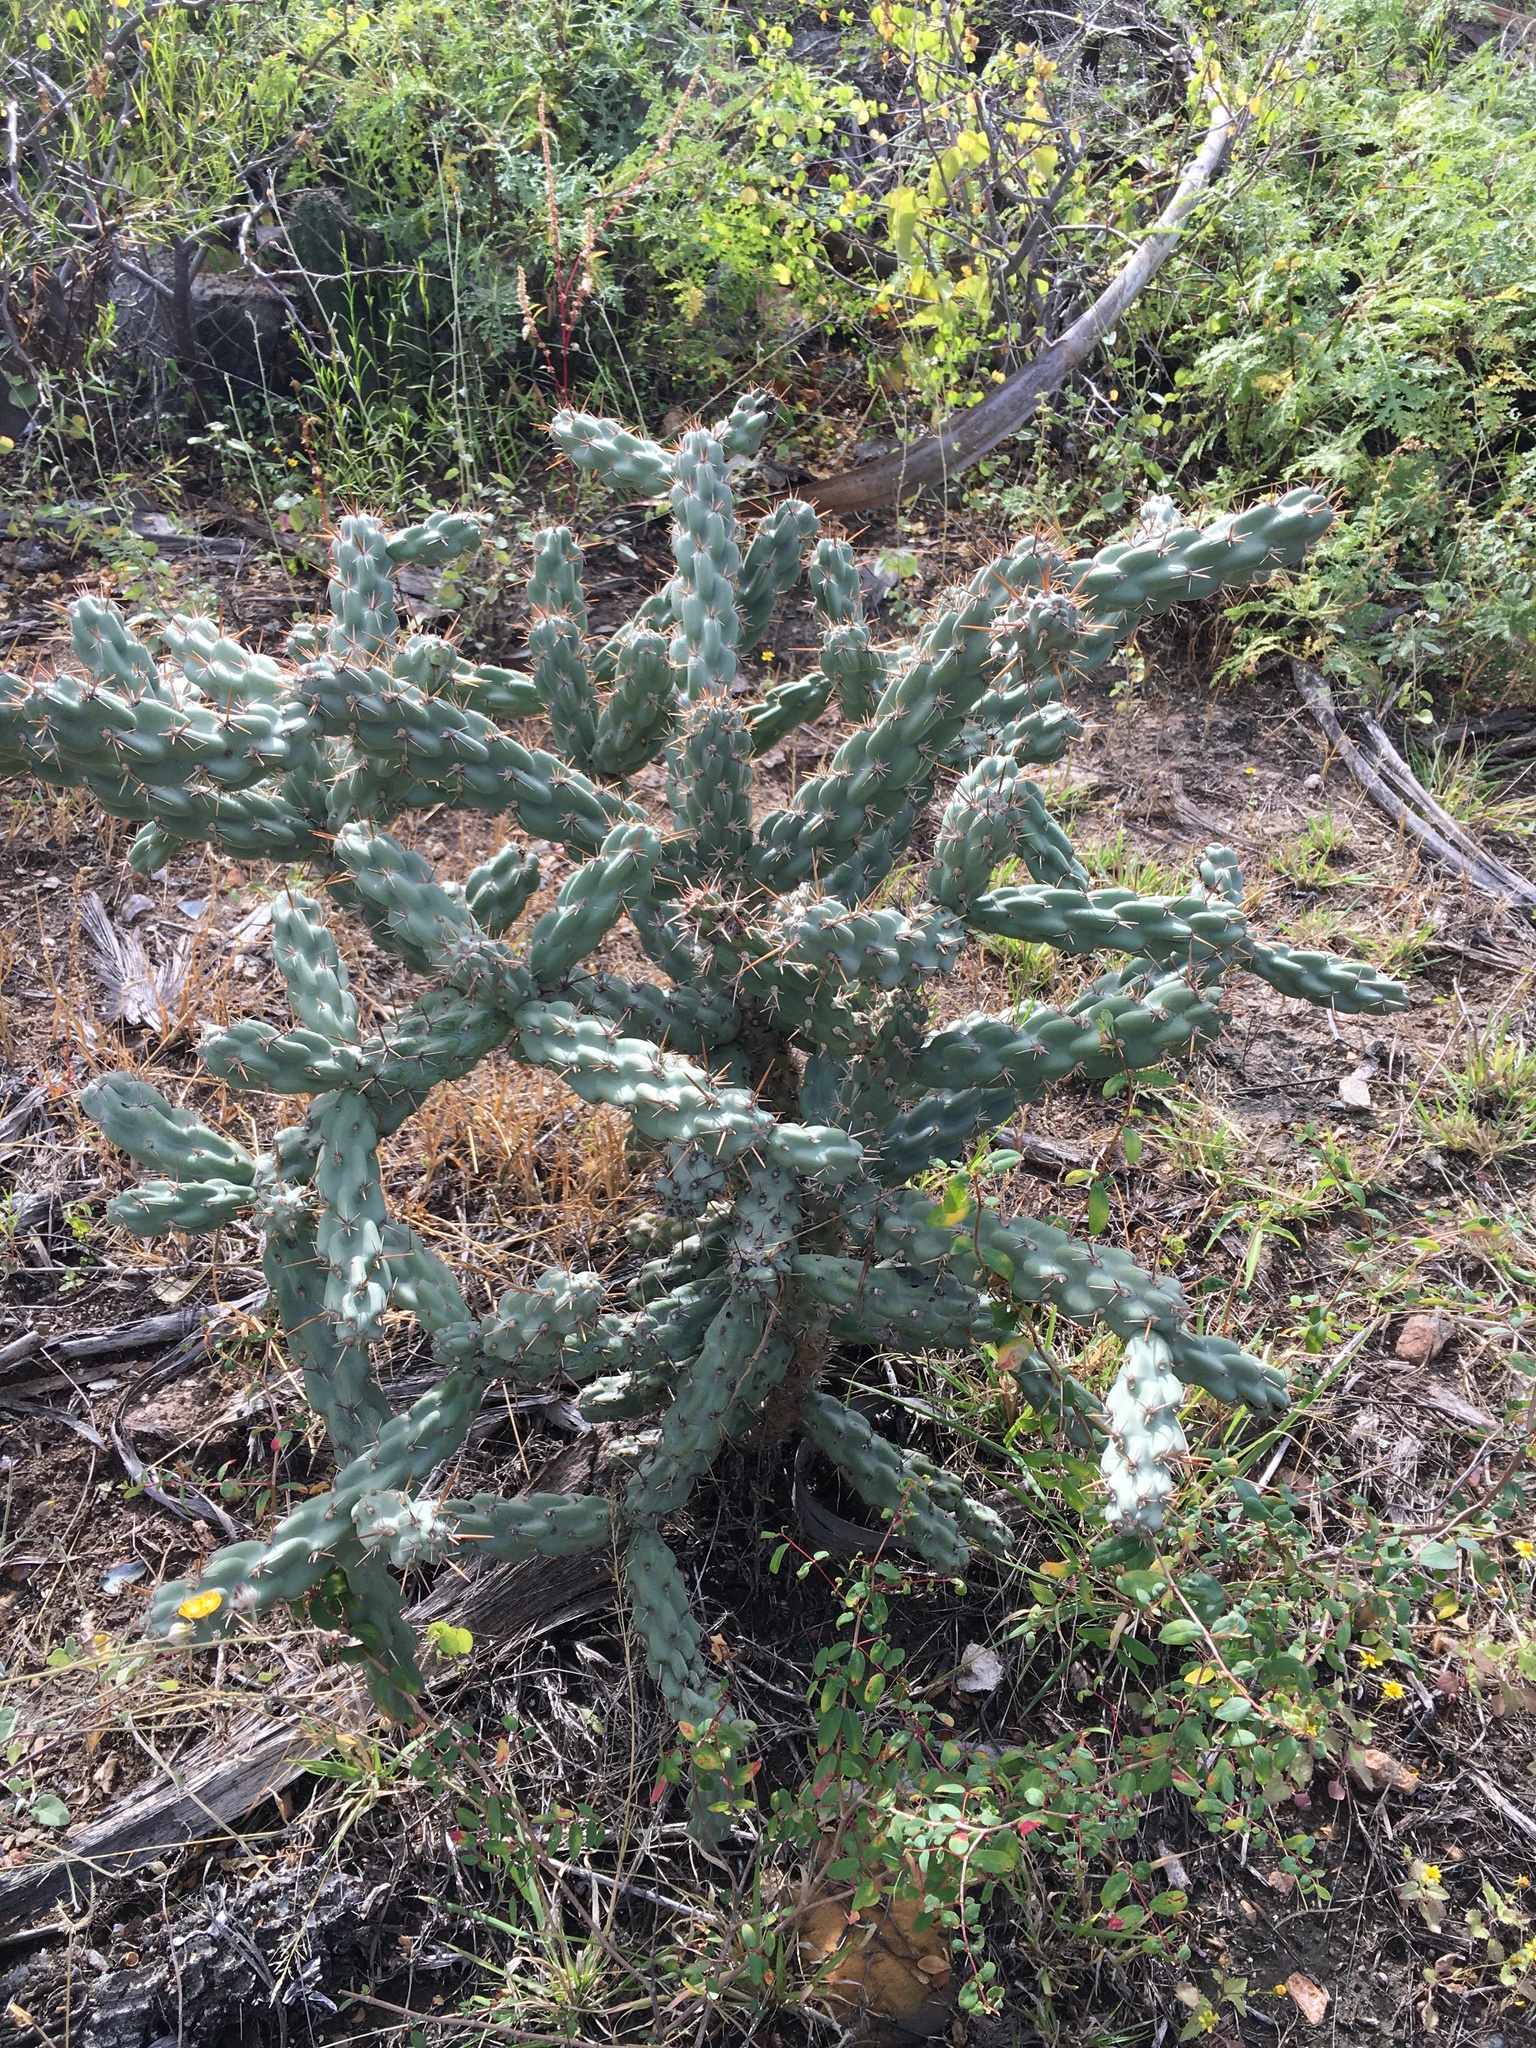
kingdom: Plantae
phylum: Tracheophyta
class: Magnoliopsida
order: Caryophyllales
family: Cactaceae
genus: Cylindropuntia
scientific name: Cylindropuntia cholla
